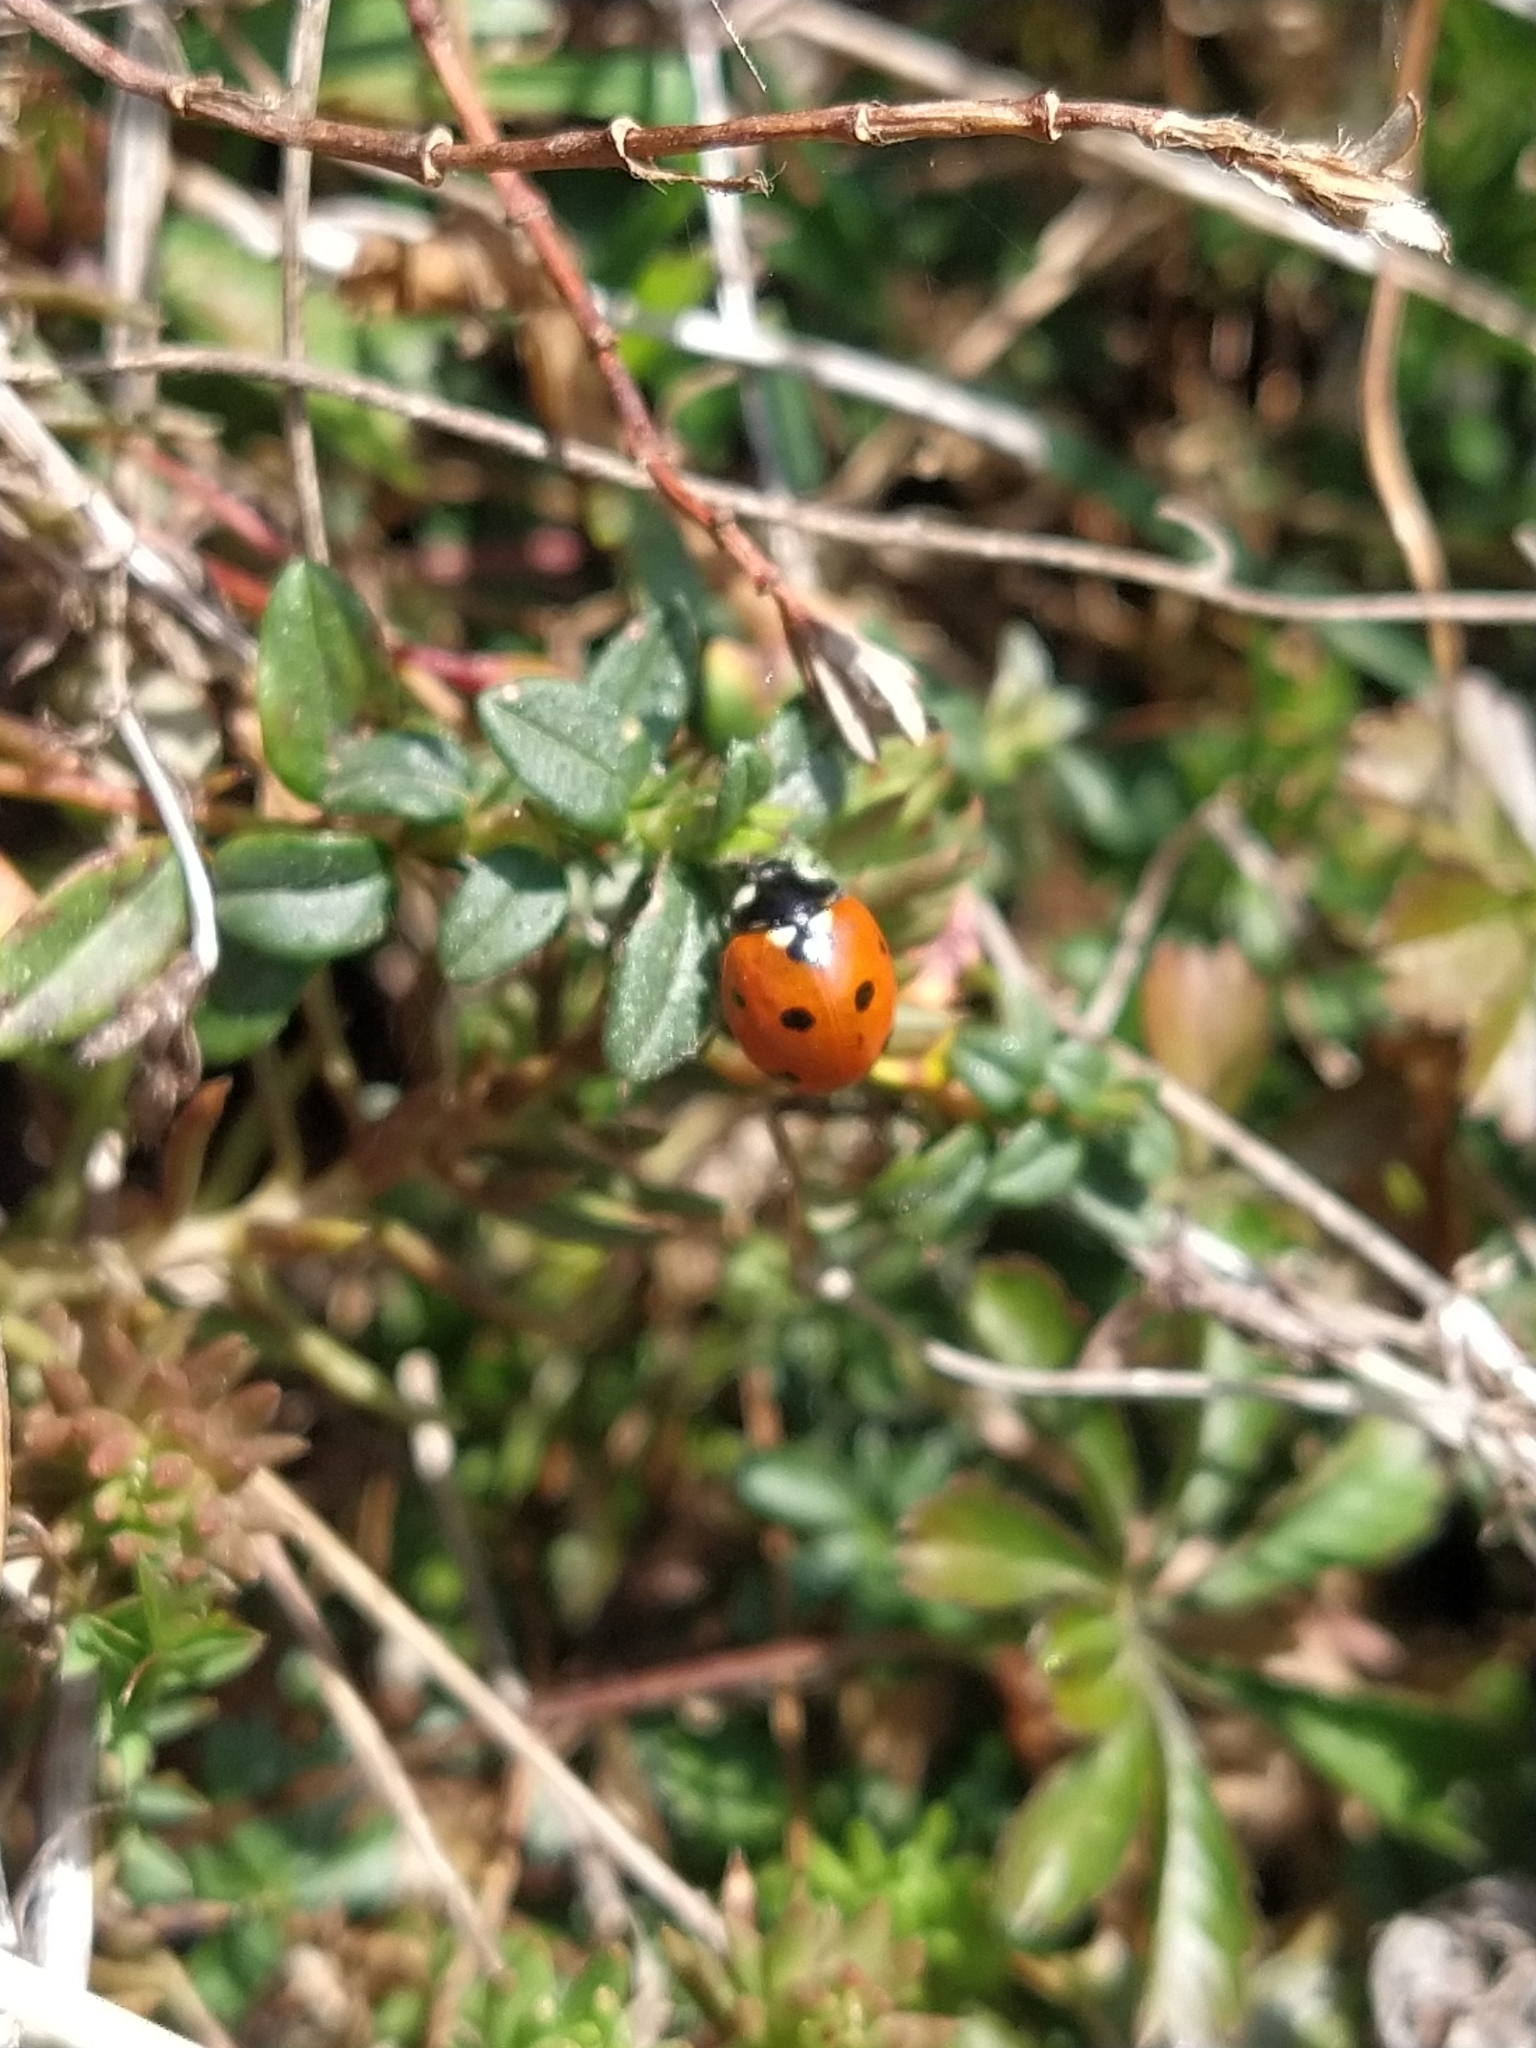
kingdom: Animalia
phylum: Arthropoda
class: Insecta
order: Coleoptera
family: Coccinellidae
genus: Coccinella
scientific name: Coccinella septempunctata
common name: Sevenspotted lady beetle
